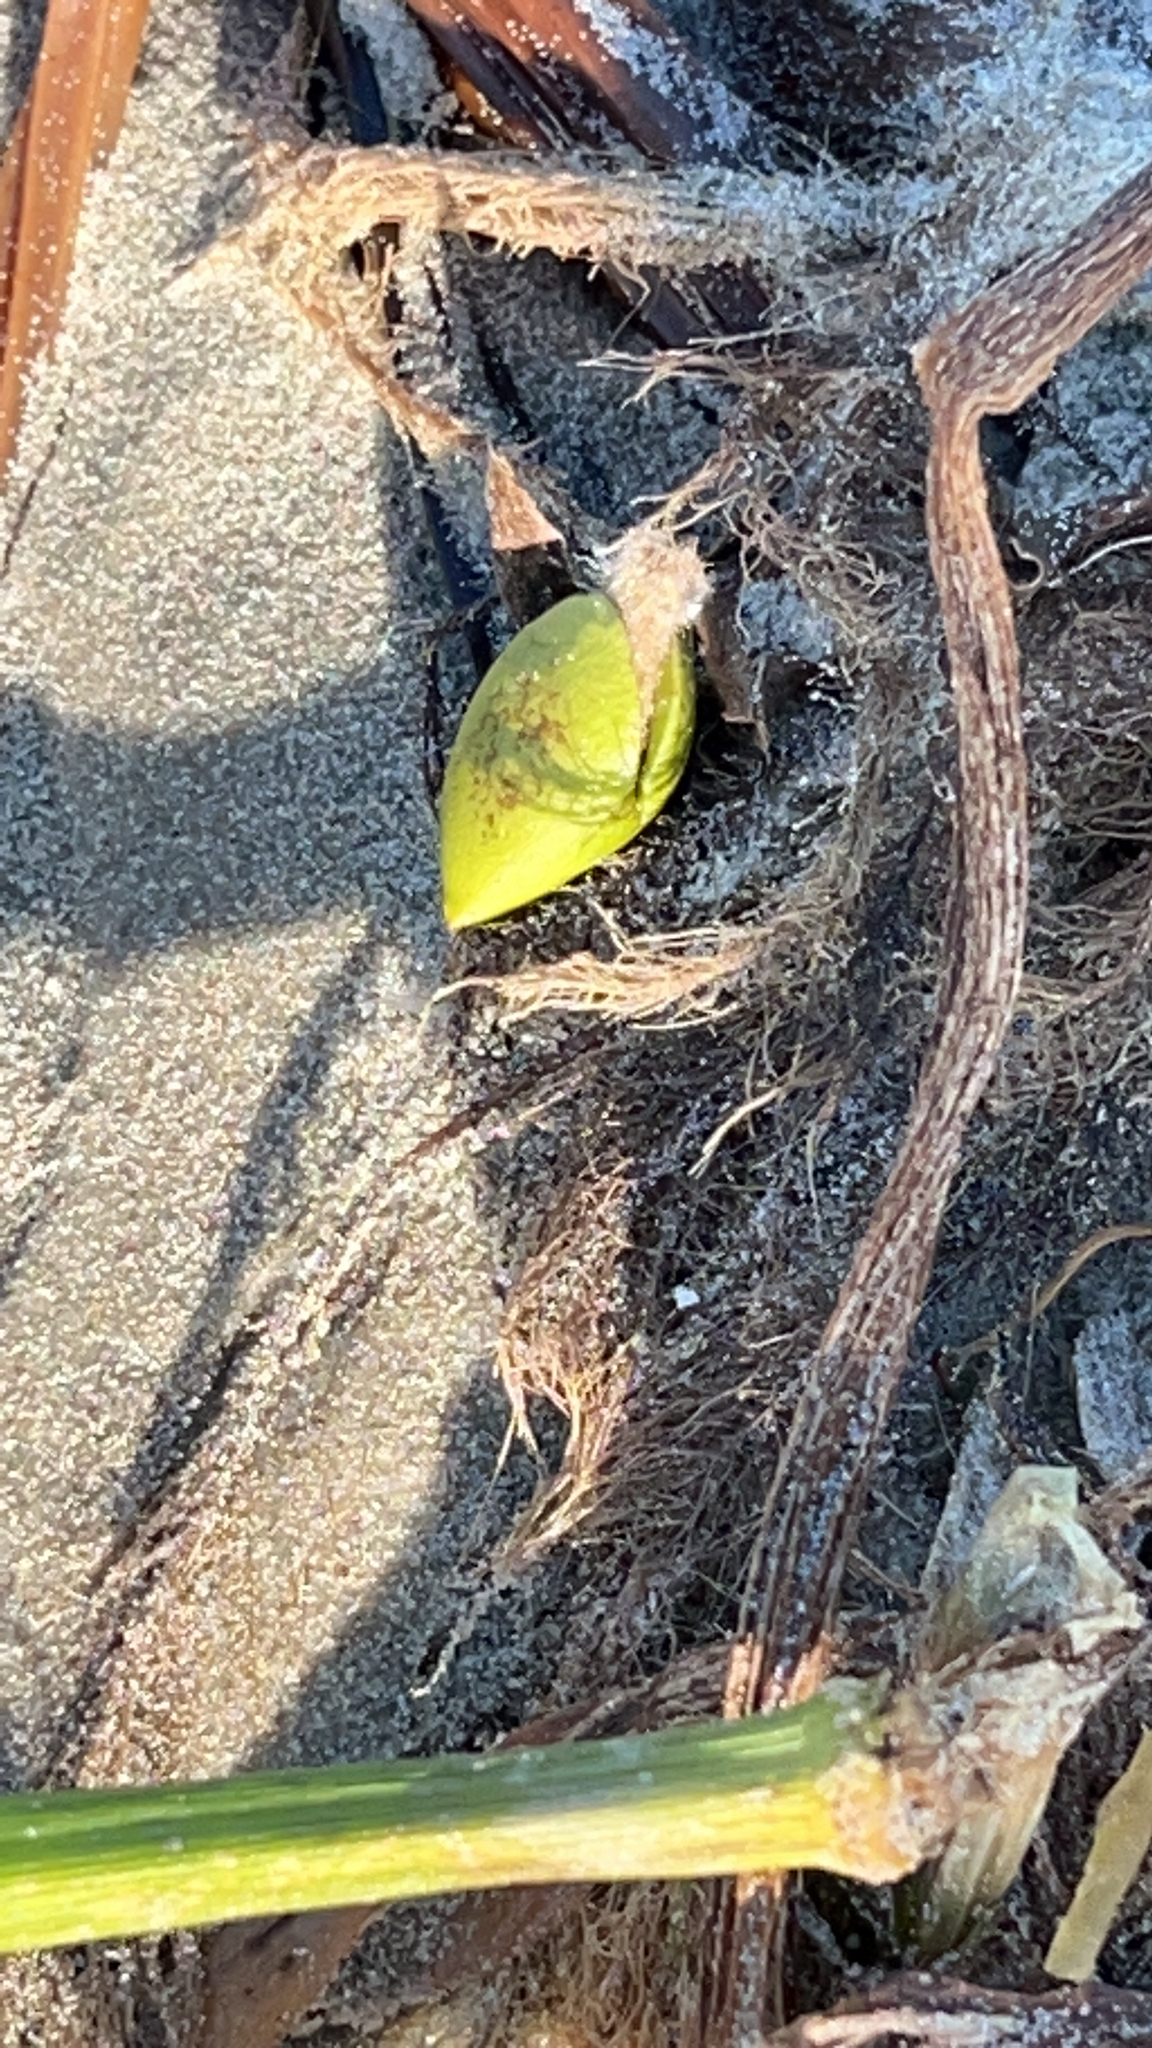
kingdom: Plantae
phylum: Tracheophyta
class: Magnoliopsida
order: Lamiales
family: Acanthaceae
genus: Avicennia
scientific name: Avicennia germinans
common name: Black mangrove
